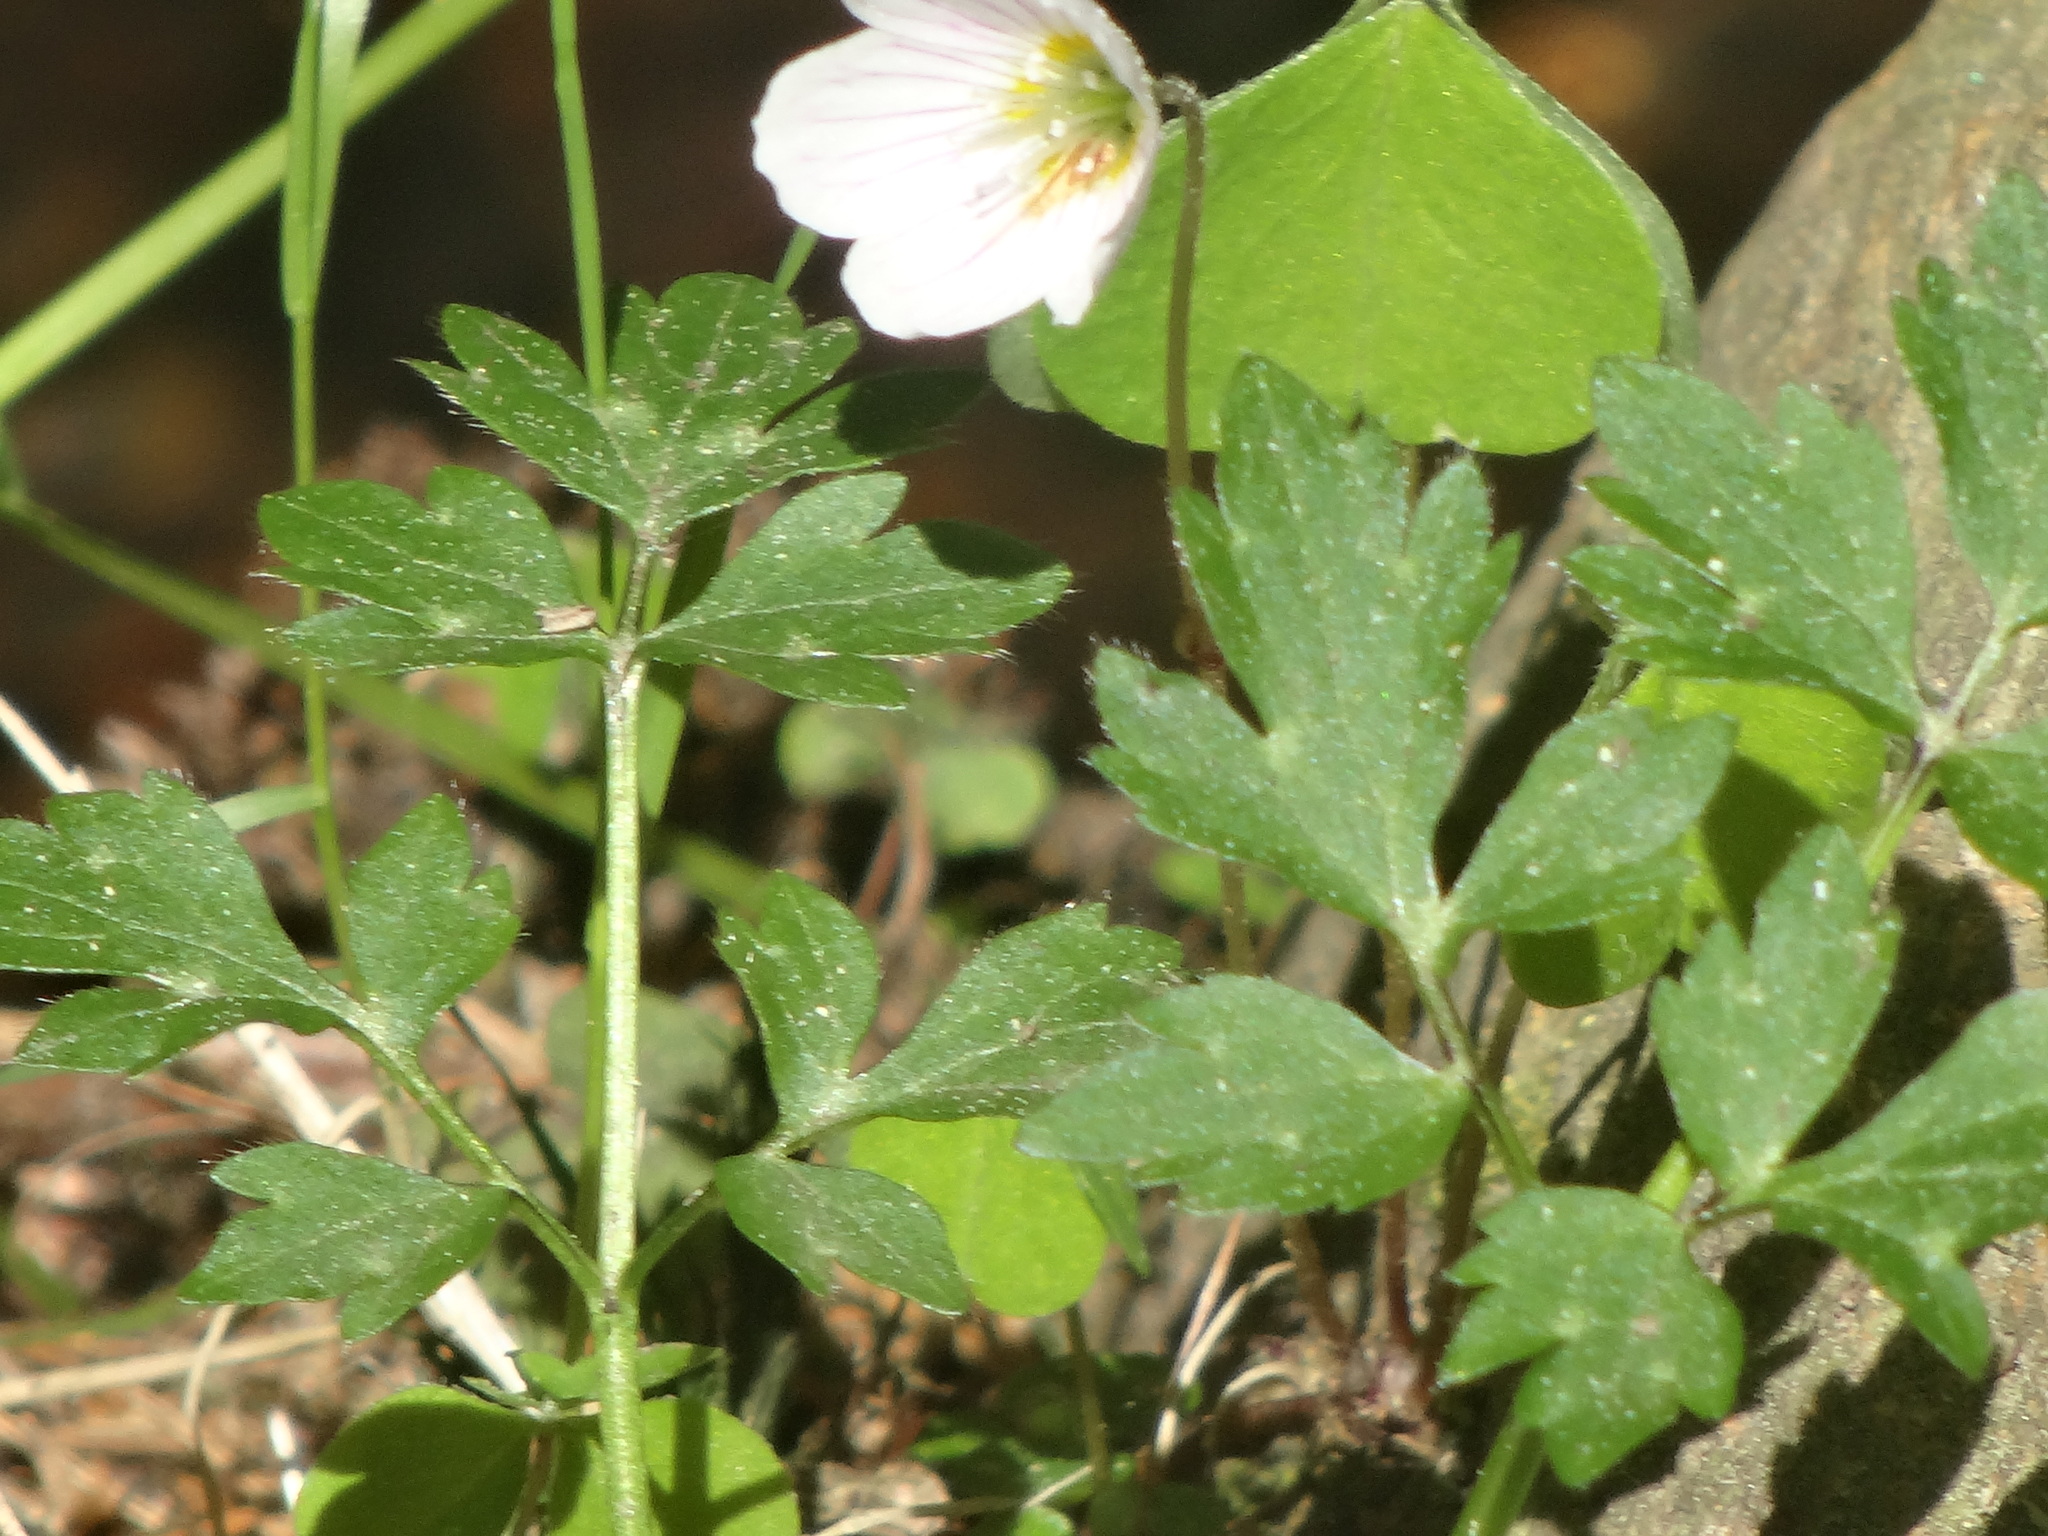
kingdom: Plantae
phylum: Tracheophyta
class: Magnoliopsida
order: Ranunculales
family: Ranunculaceae
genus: Anemone
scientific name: Anemone nemorosa
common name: Wood anemone
